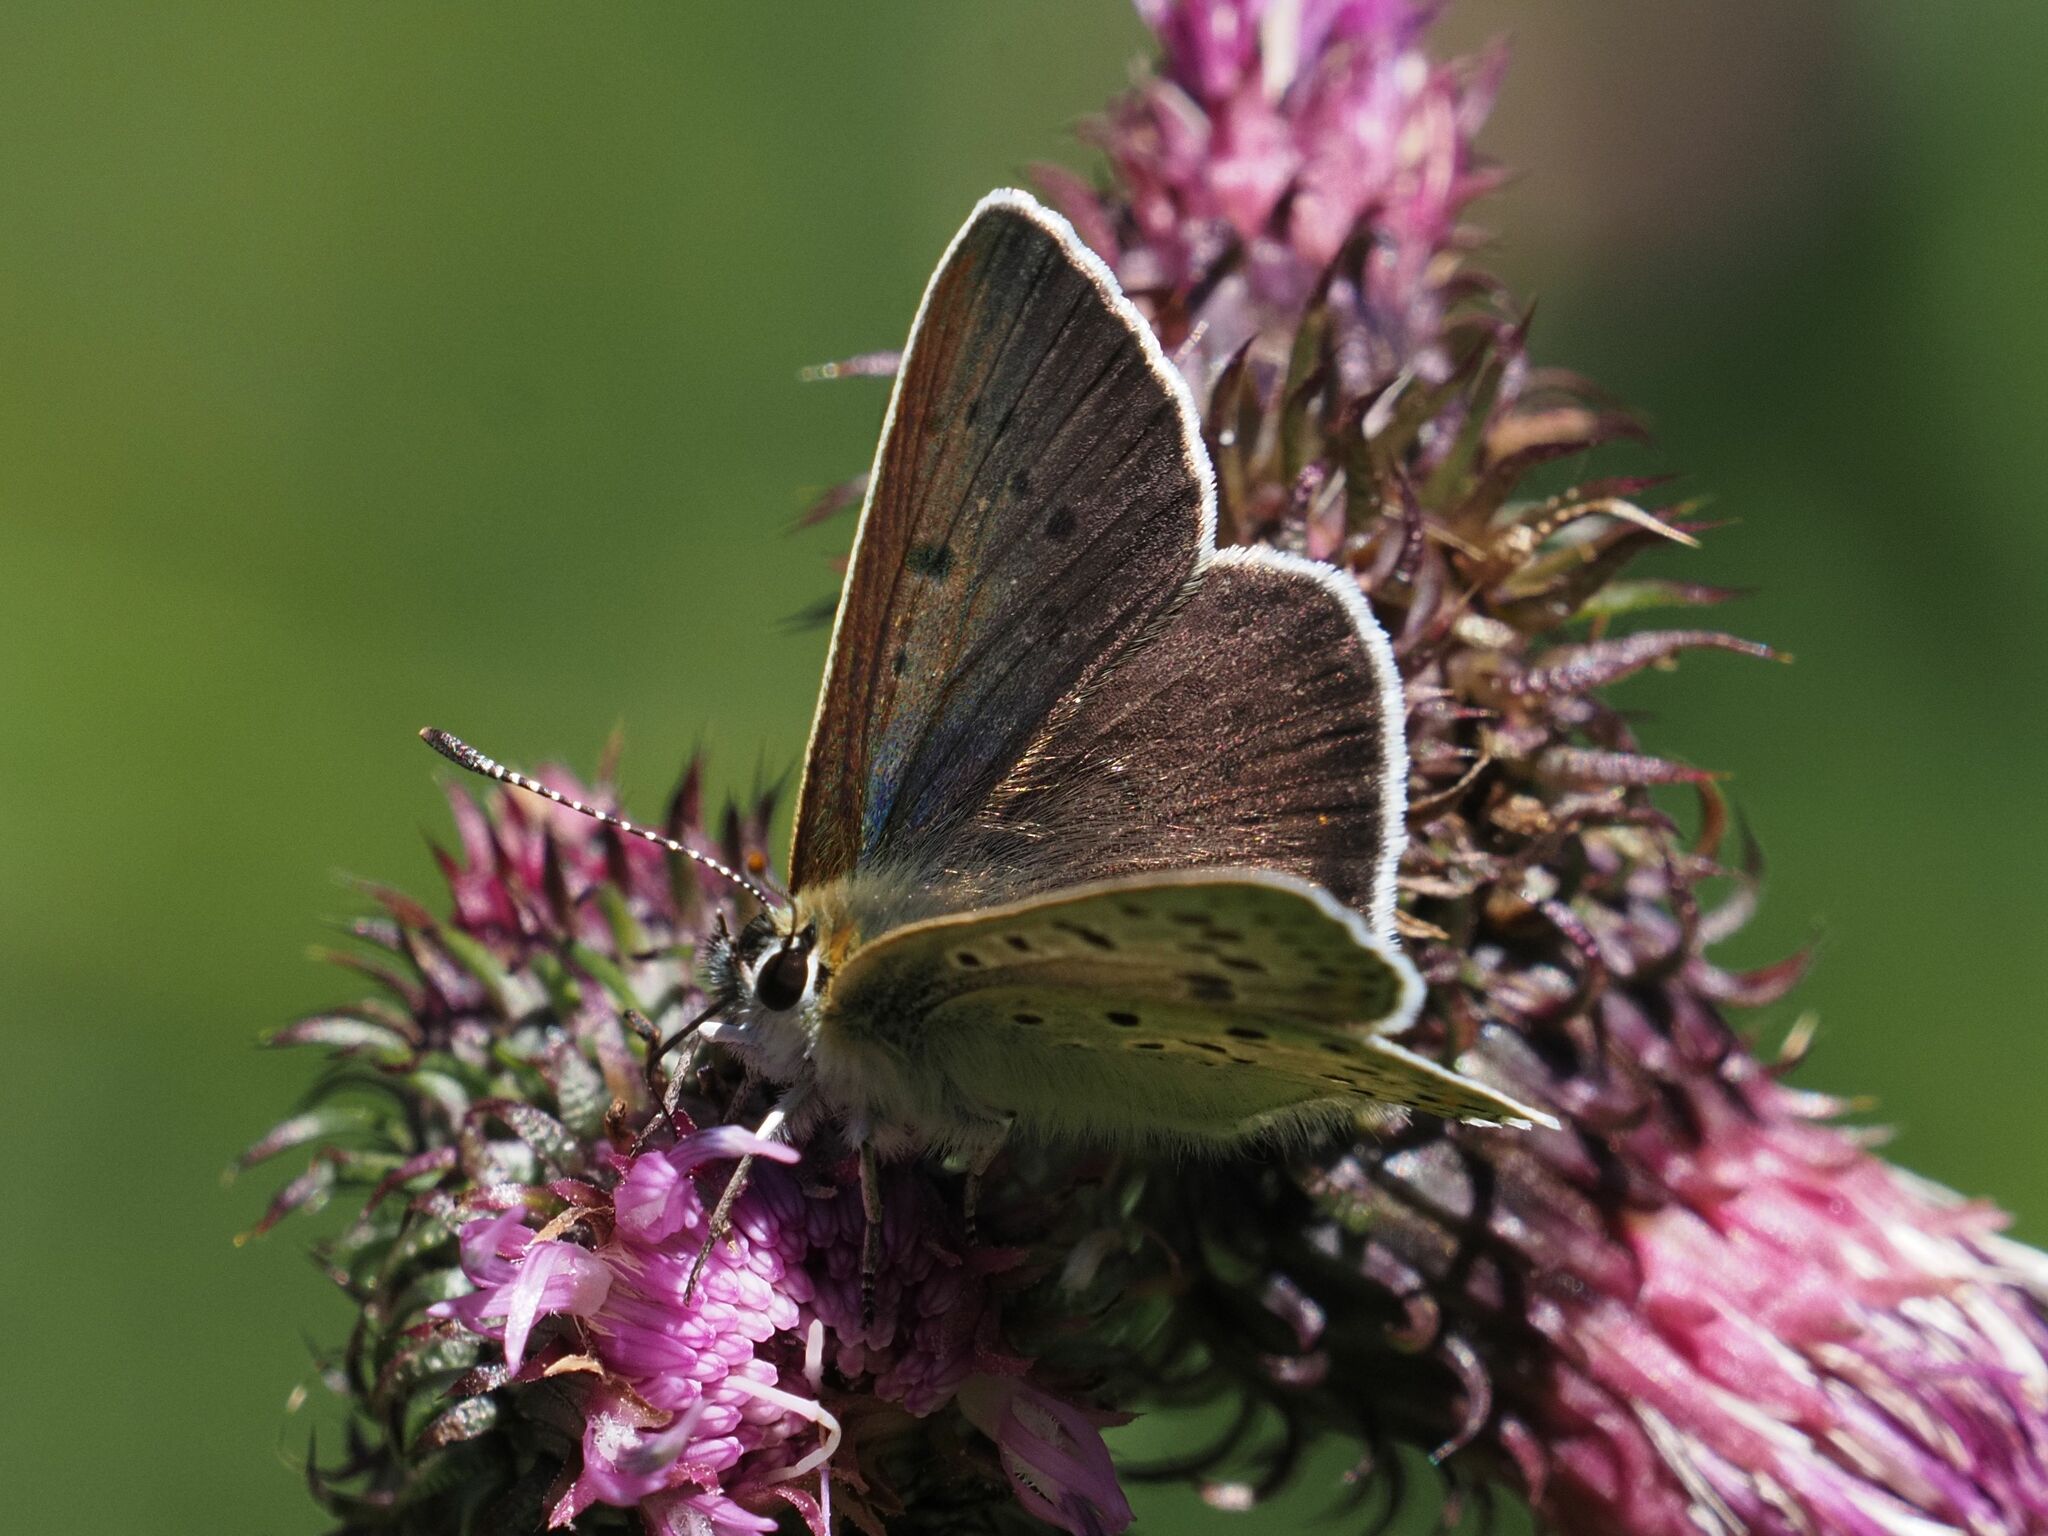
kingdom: Animalia
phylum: Arthropoda
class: Insecta
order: Lepidoptera
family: Lycaenidae
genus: Loweia
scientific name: Loweia tityrus
